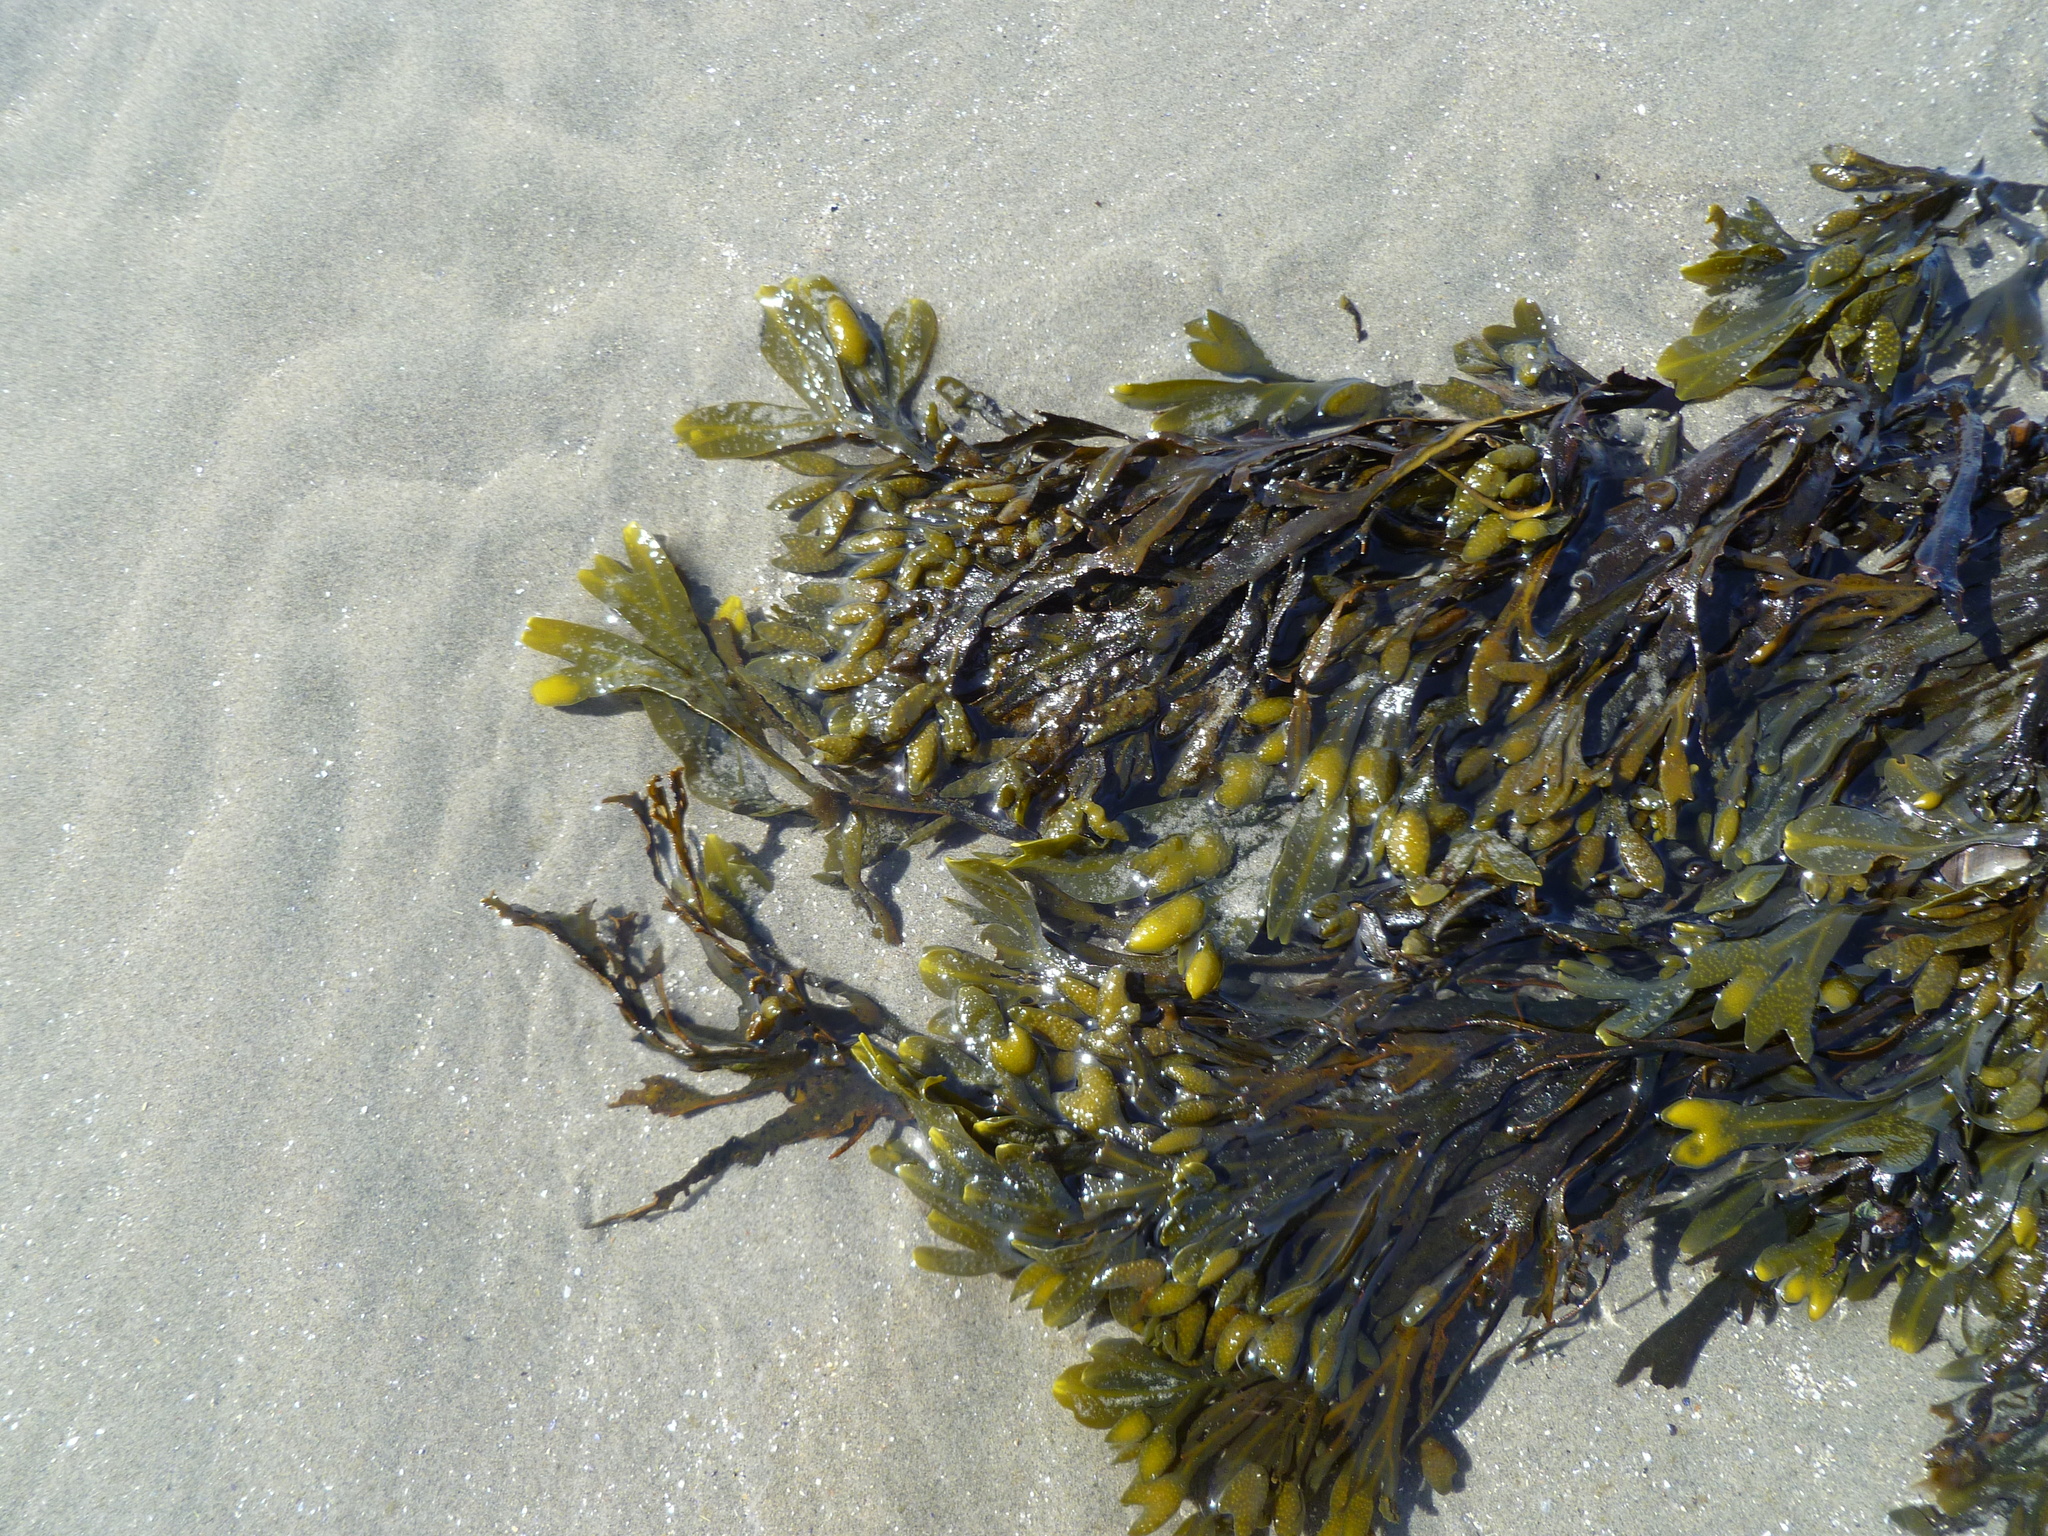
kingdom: Chromista
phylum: Ochrophyta
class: Phaeophyceae
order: Fucales
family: Fucaceae
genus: Fucus
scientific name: Fucus distichus
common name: Rockweed
